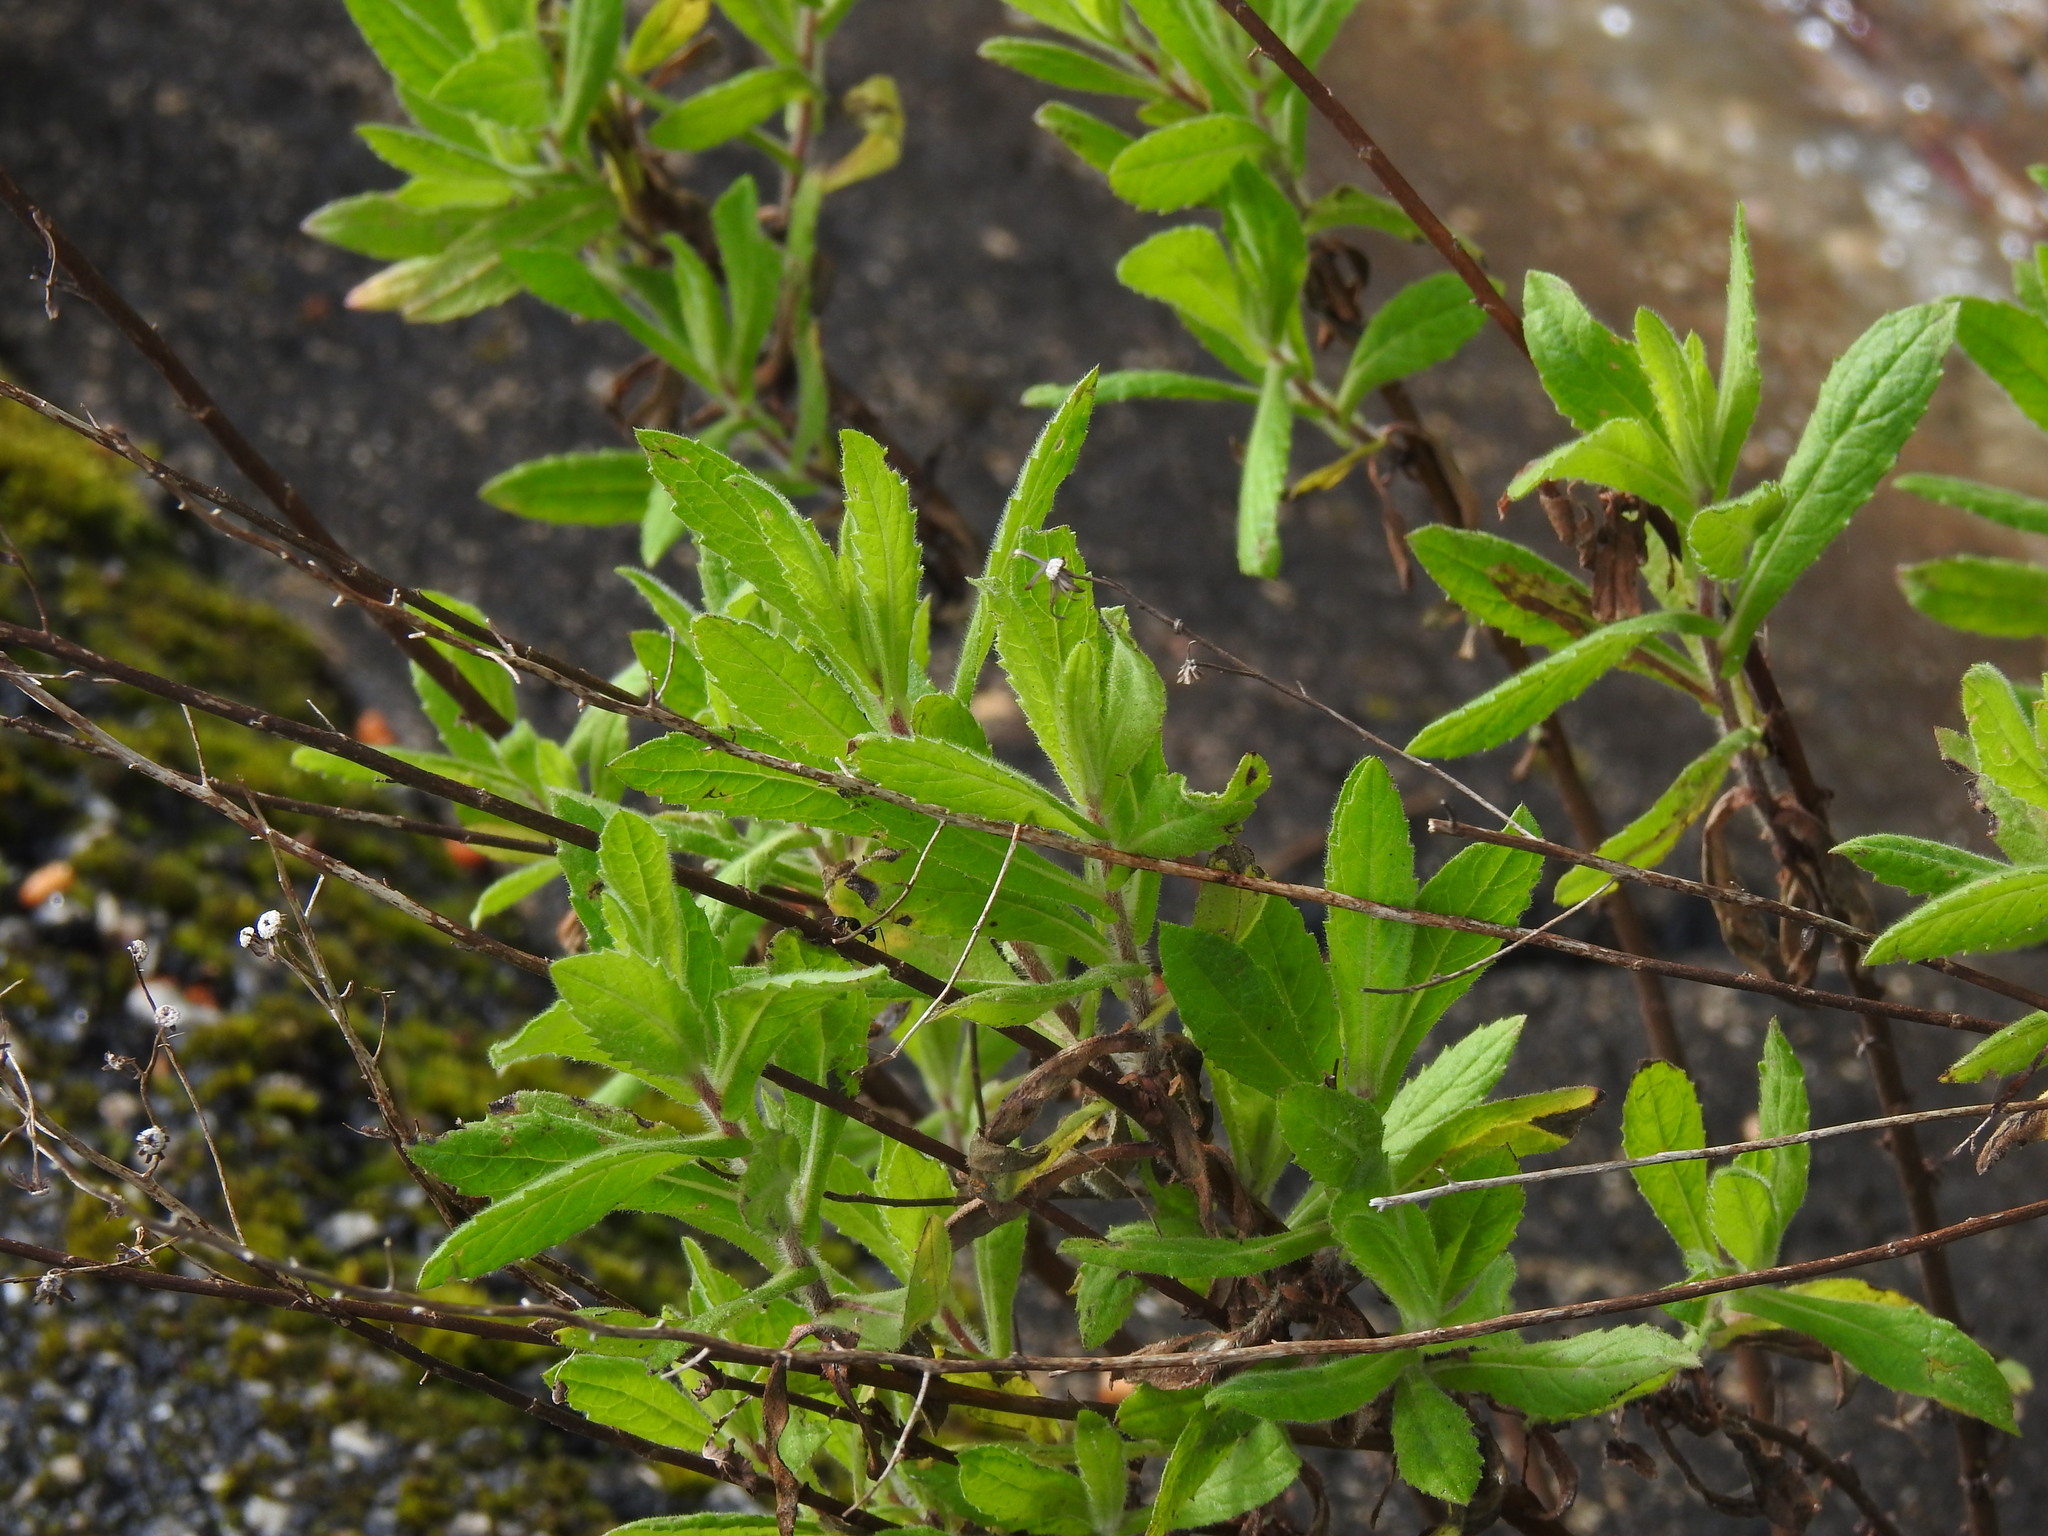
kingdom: Plantae
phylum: Tracheophyta
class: Magnoliopsida
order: Asterales
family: Asteraceae
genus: Dittrichia
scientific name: Dittrichia viscosa
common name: Woody fleabane
